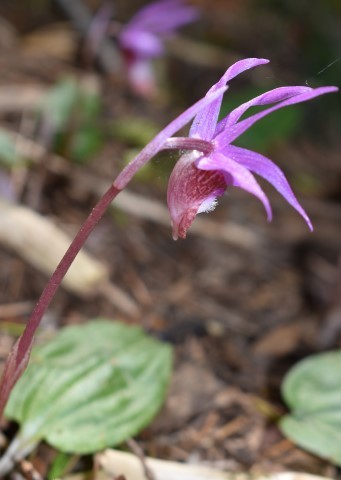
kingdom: Plantae
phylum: Tracheophyta
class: Liliopsida
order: Asparagales
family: Orchidaceae
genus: Calypso
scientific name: Calypso bulbosa
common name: Calypso
